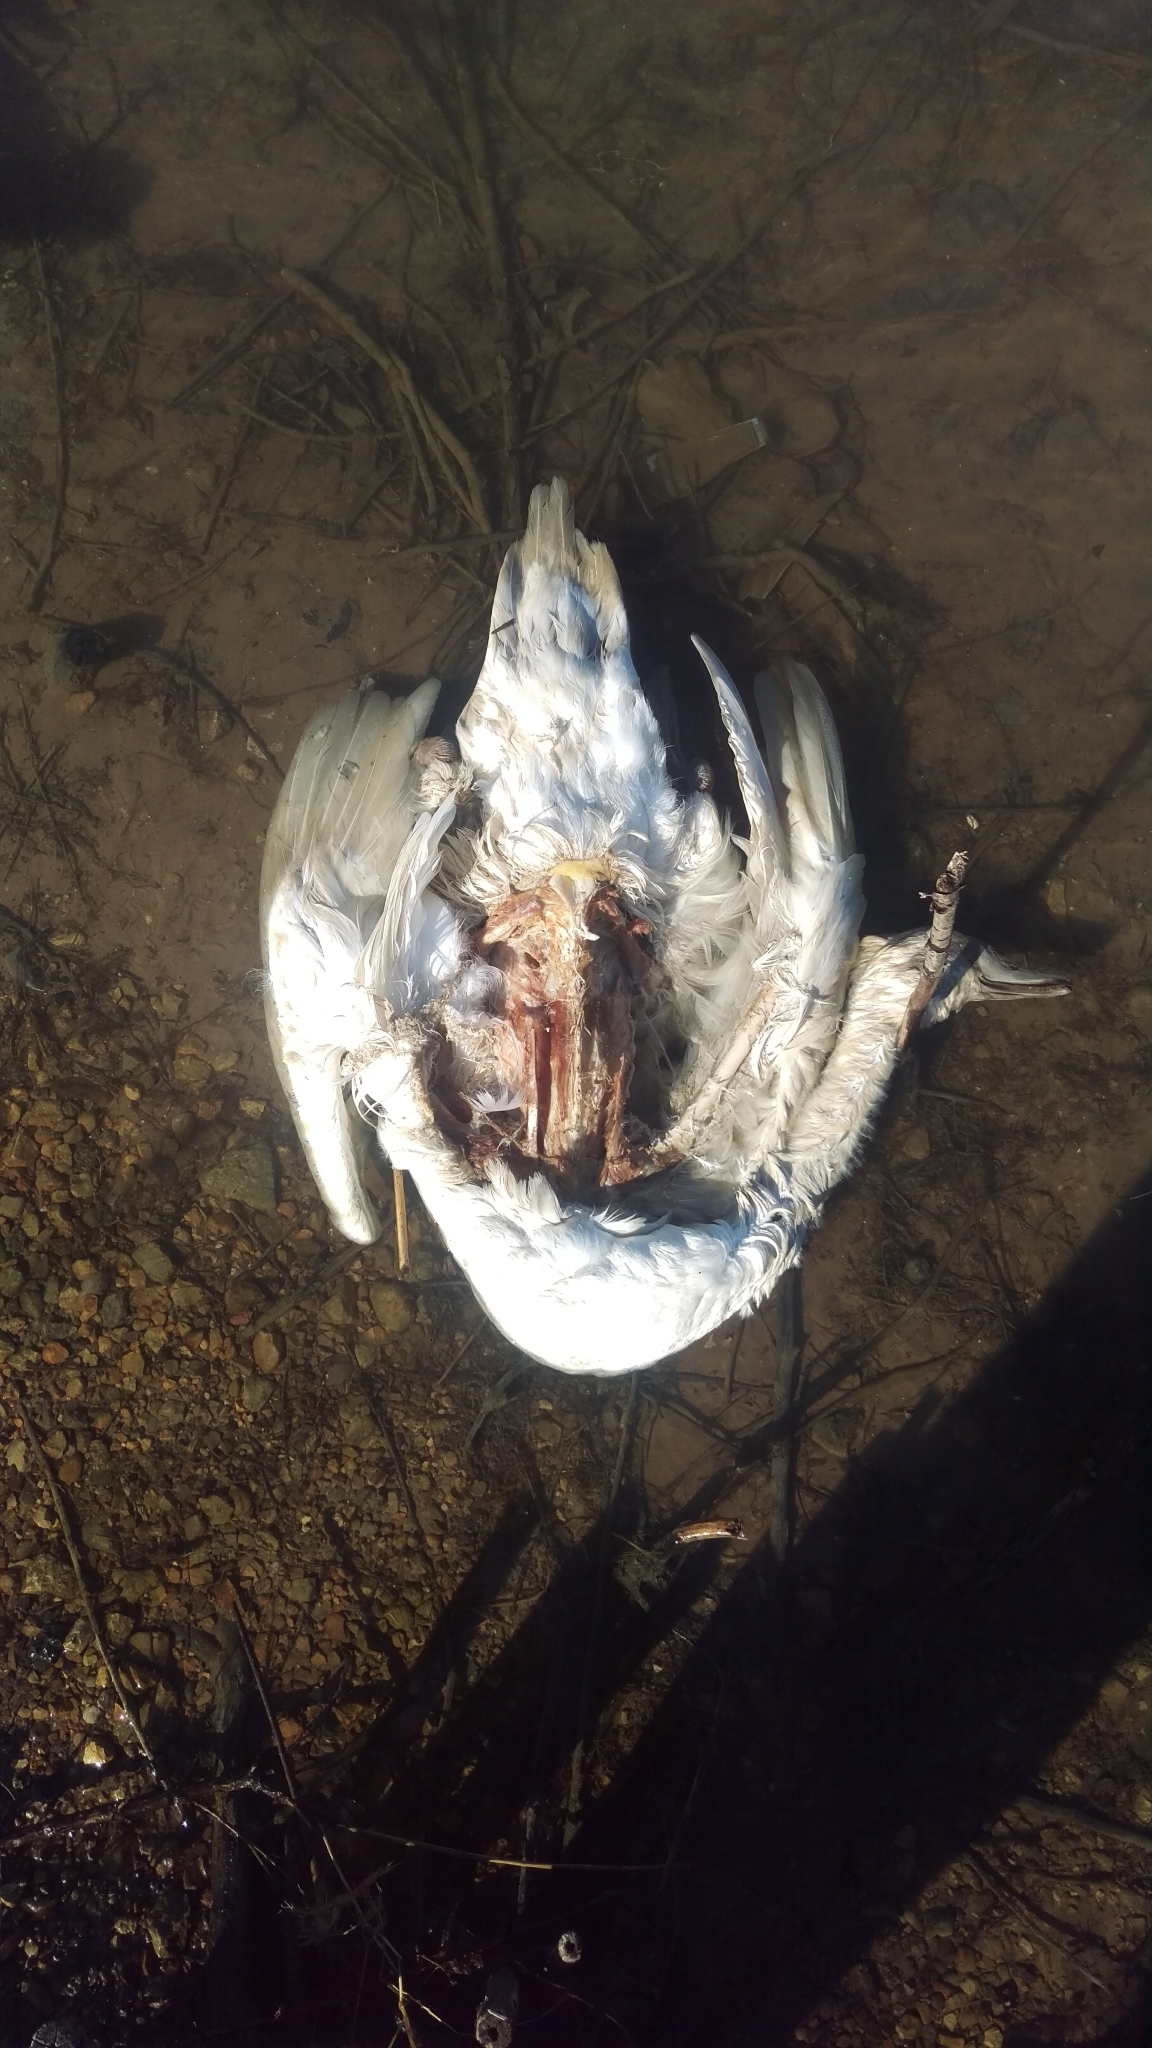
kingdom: Animalia
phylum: Chordata
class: Aves
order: Anseriformes
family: Anatidae
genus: Cygnus
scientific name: Cygnus olor
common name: Mute swan
